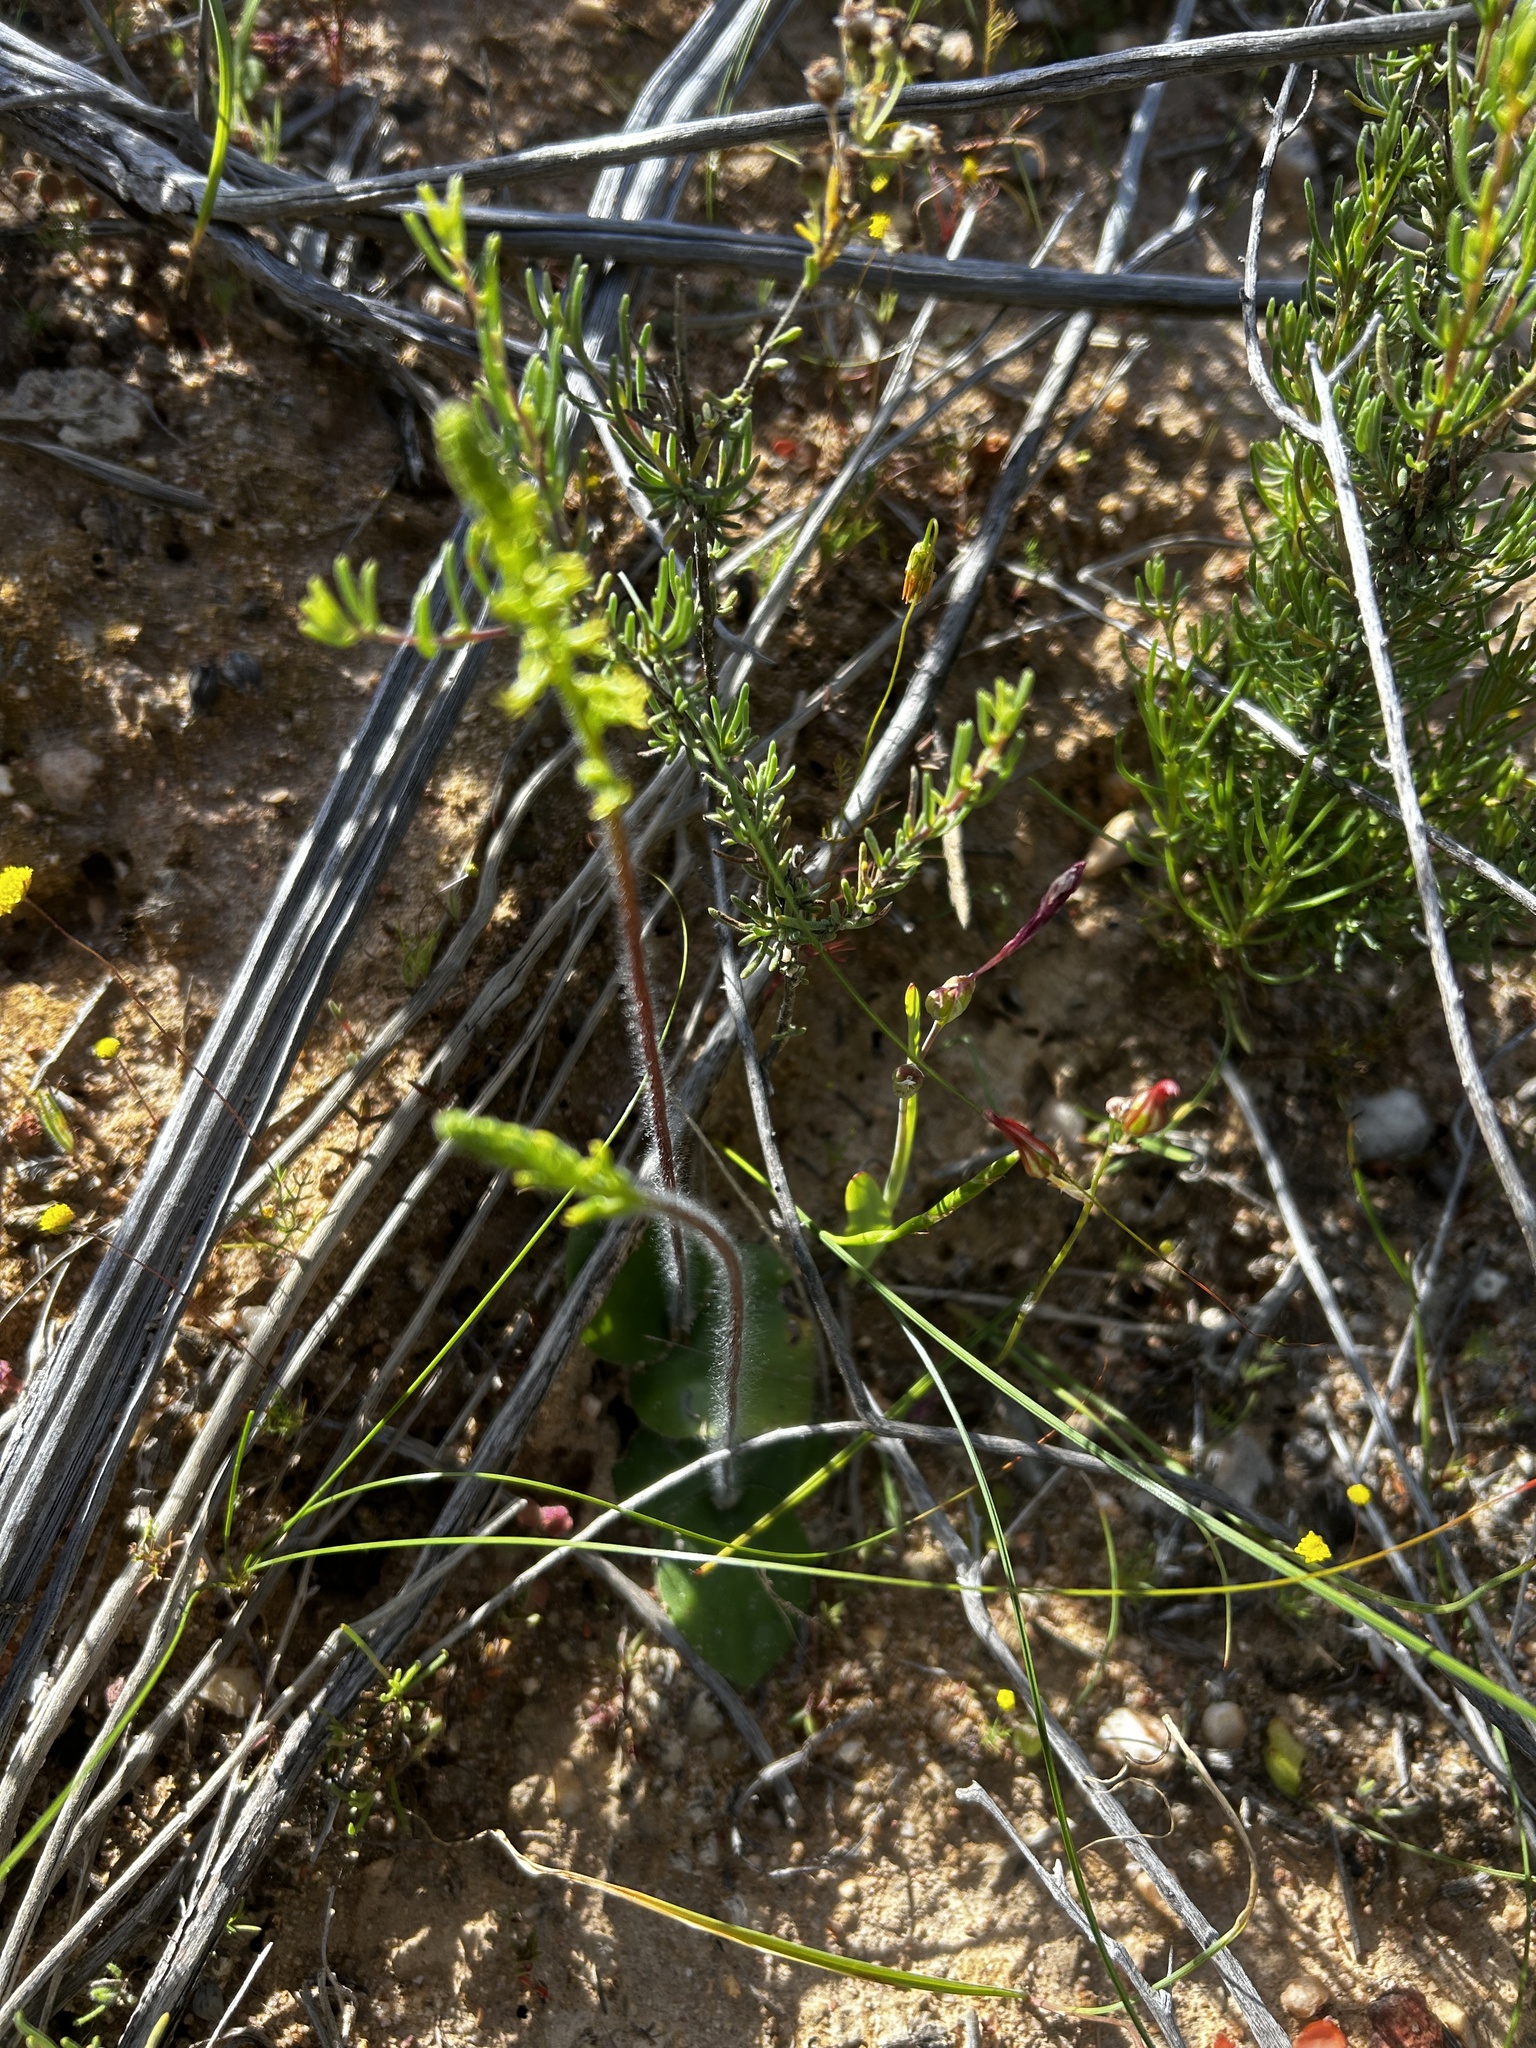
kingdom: Plantae
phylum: Tracheophyta
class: Liliopsida
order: Asparagales
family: Orchidaceae
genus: Holothrix
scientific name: Holothrix villosa
